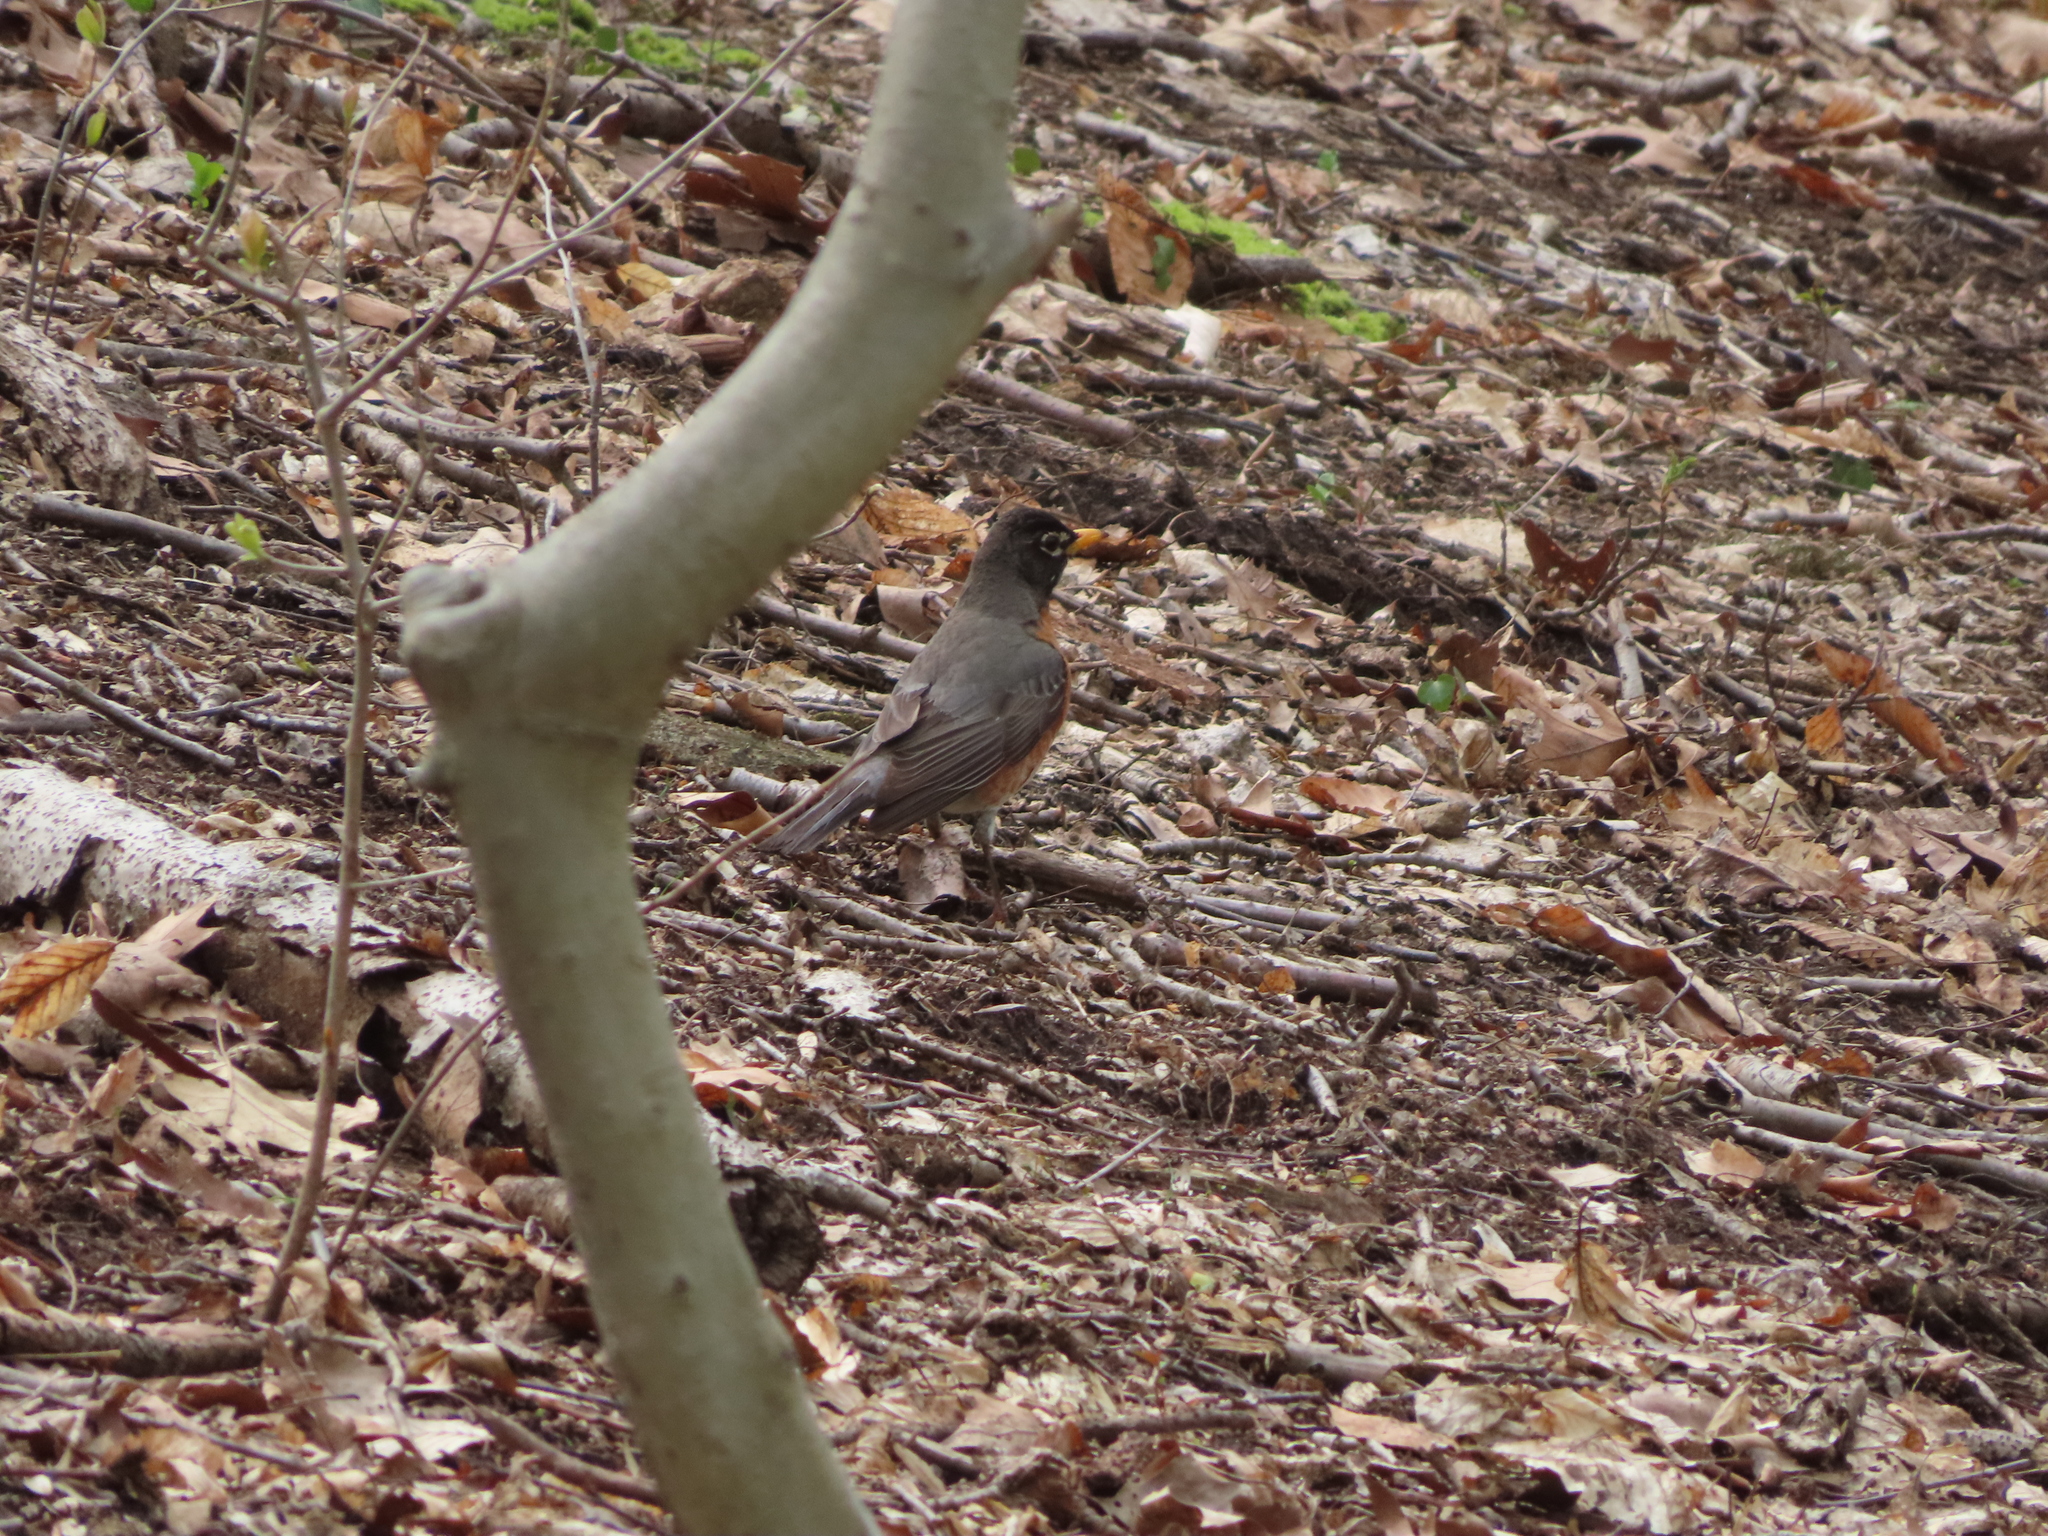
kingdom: Animalia
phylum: Chordata
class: Aves
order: Passeriformes
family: Turdidae
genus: Turdus
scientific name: Turdus migratorius
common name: American robin
